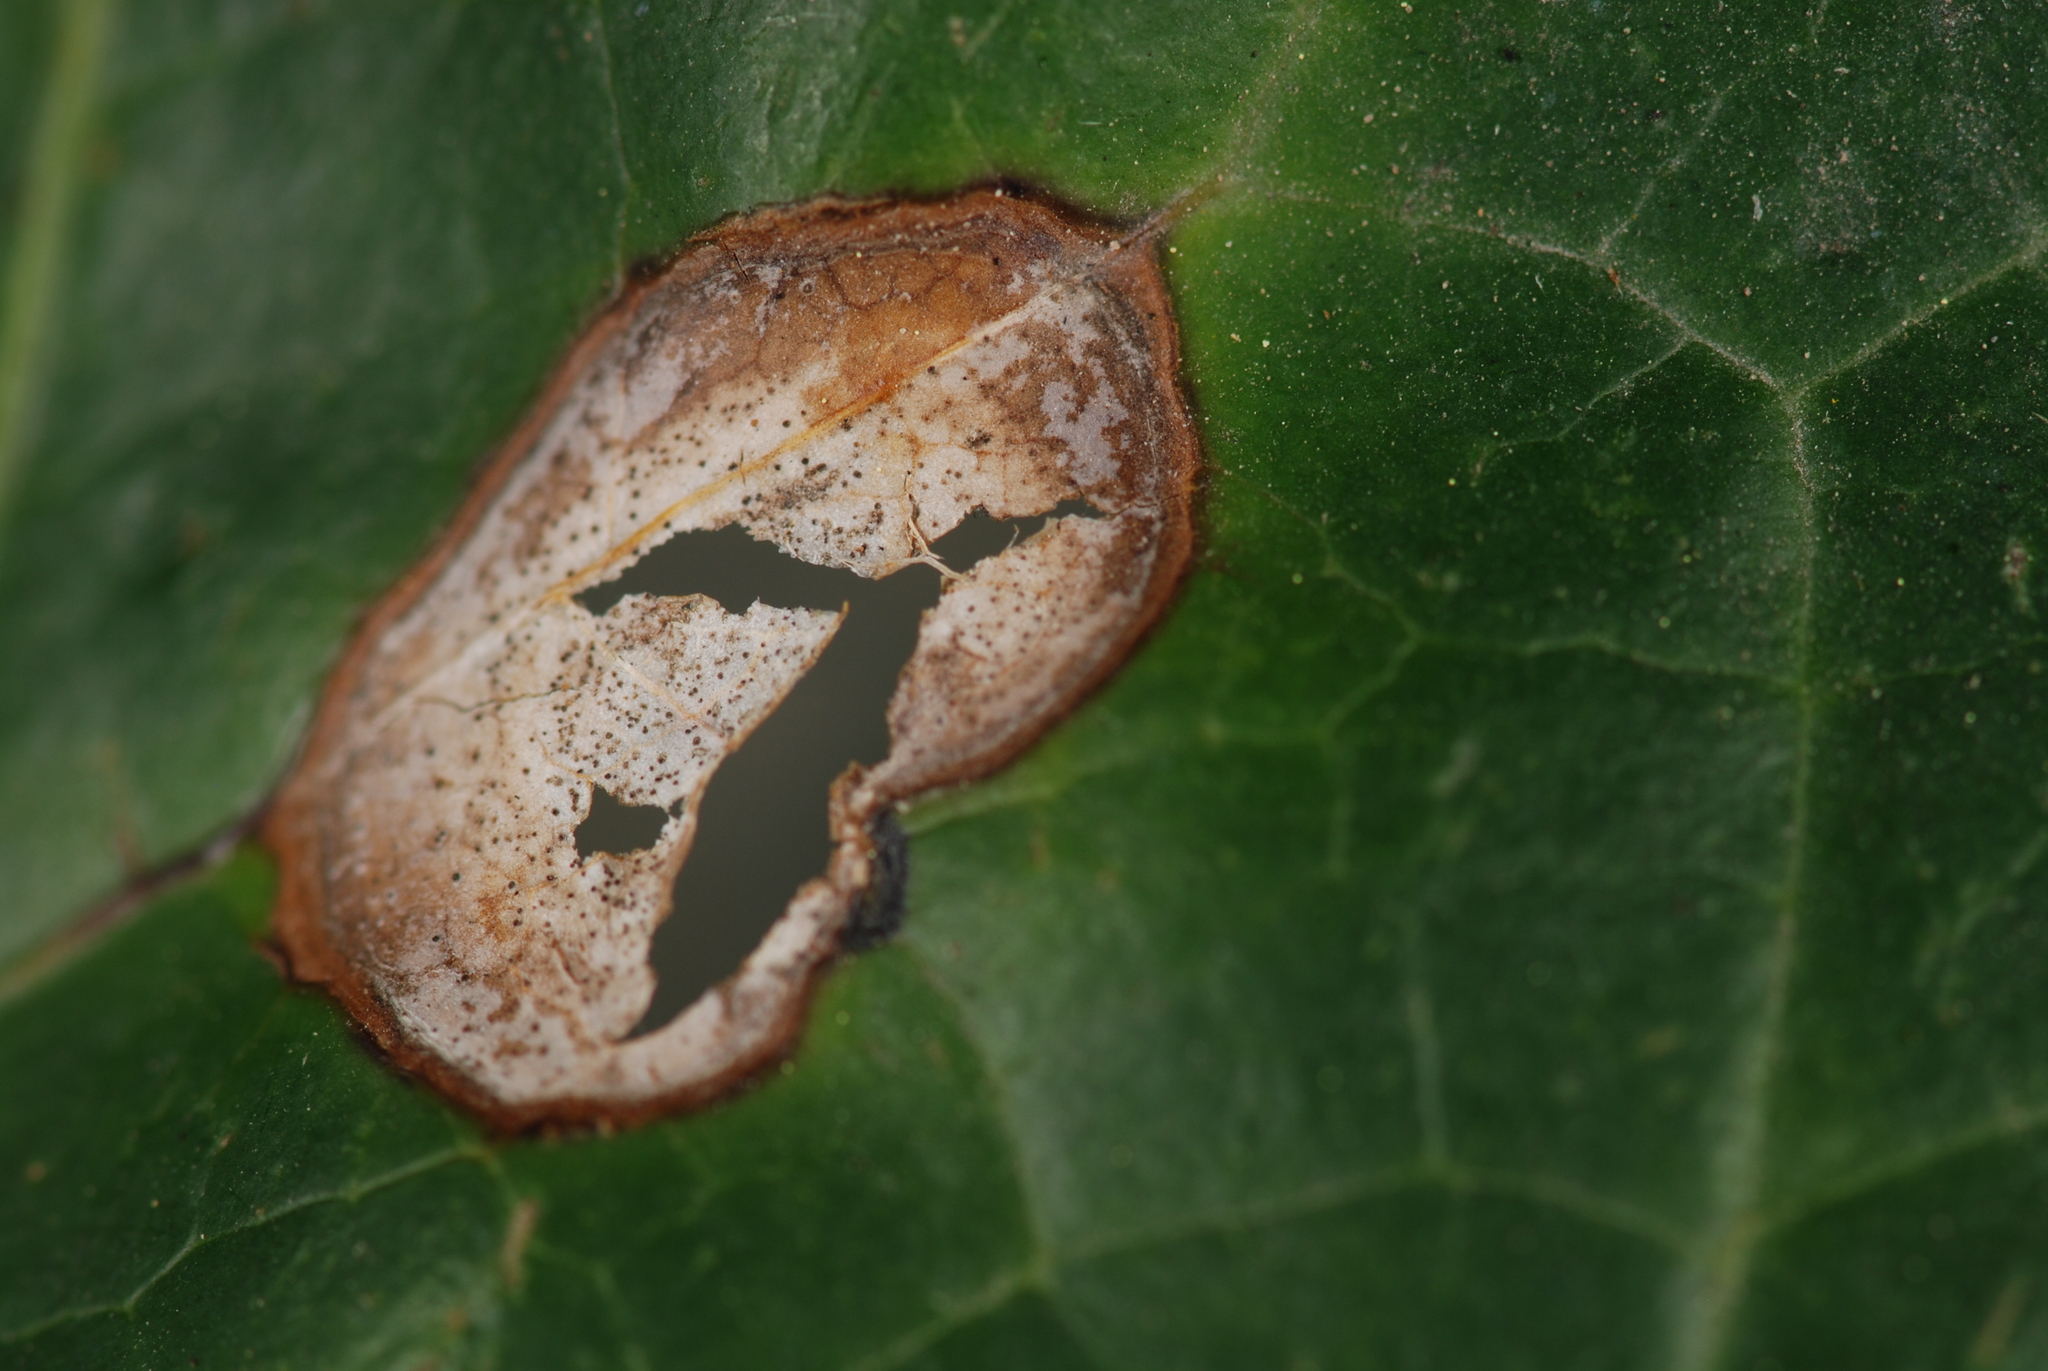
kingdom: Fungi
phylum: Ascomycota
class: Dothideomycetes
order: Pleosporales
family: Didymellaceae
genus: Boeremia
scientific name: Boeremia hedericola
